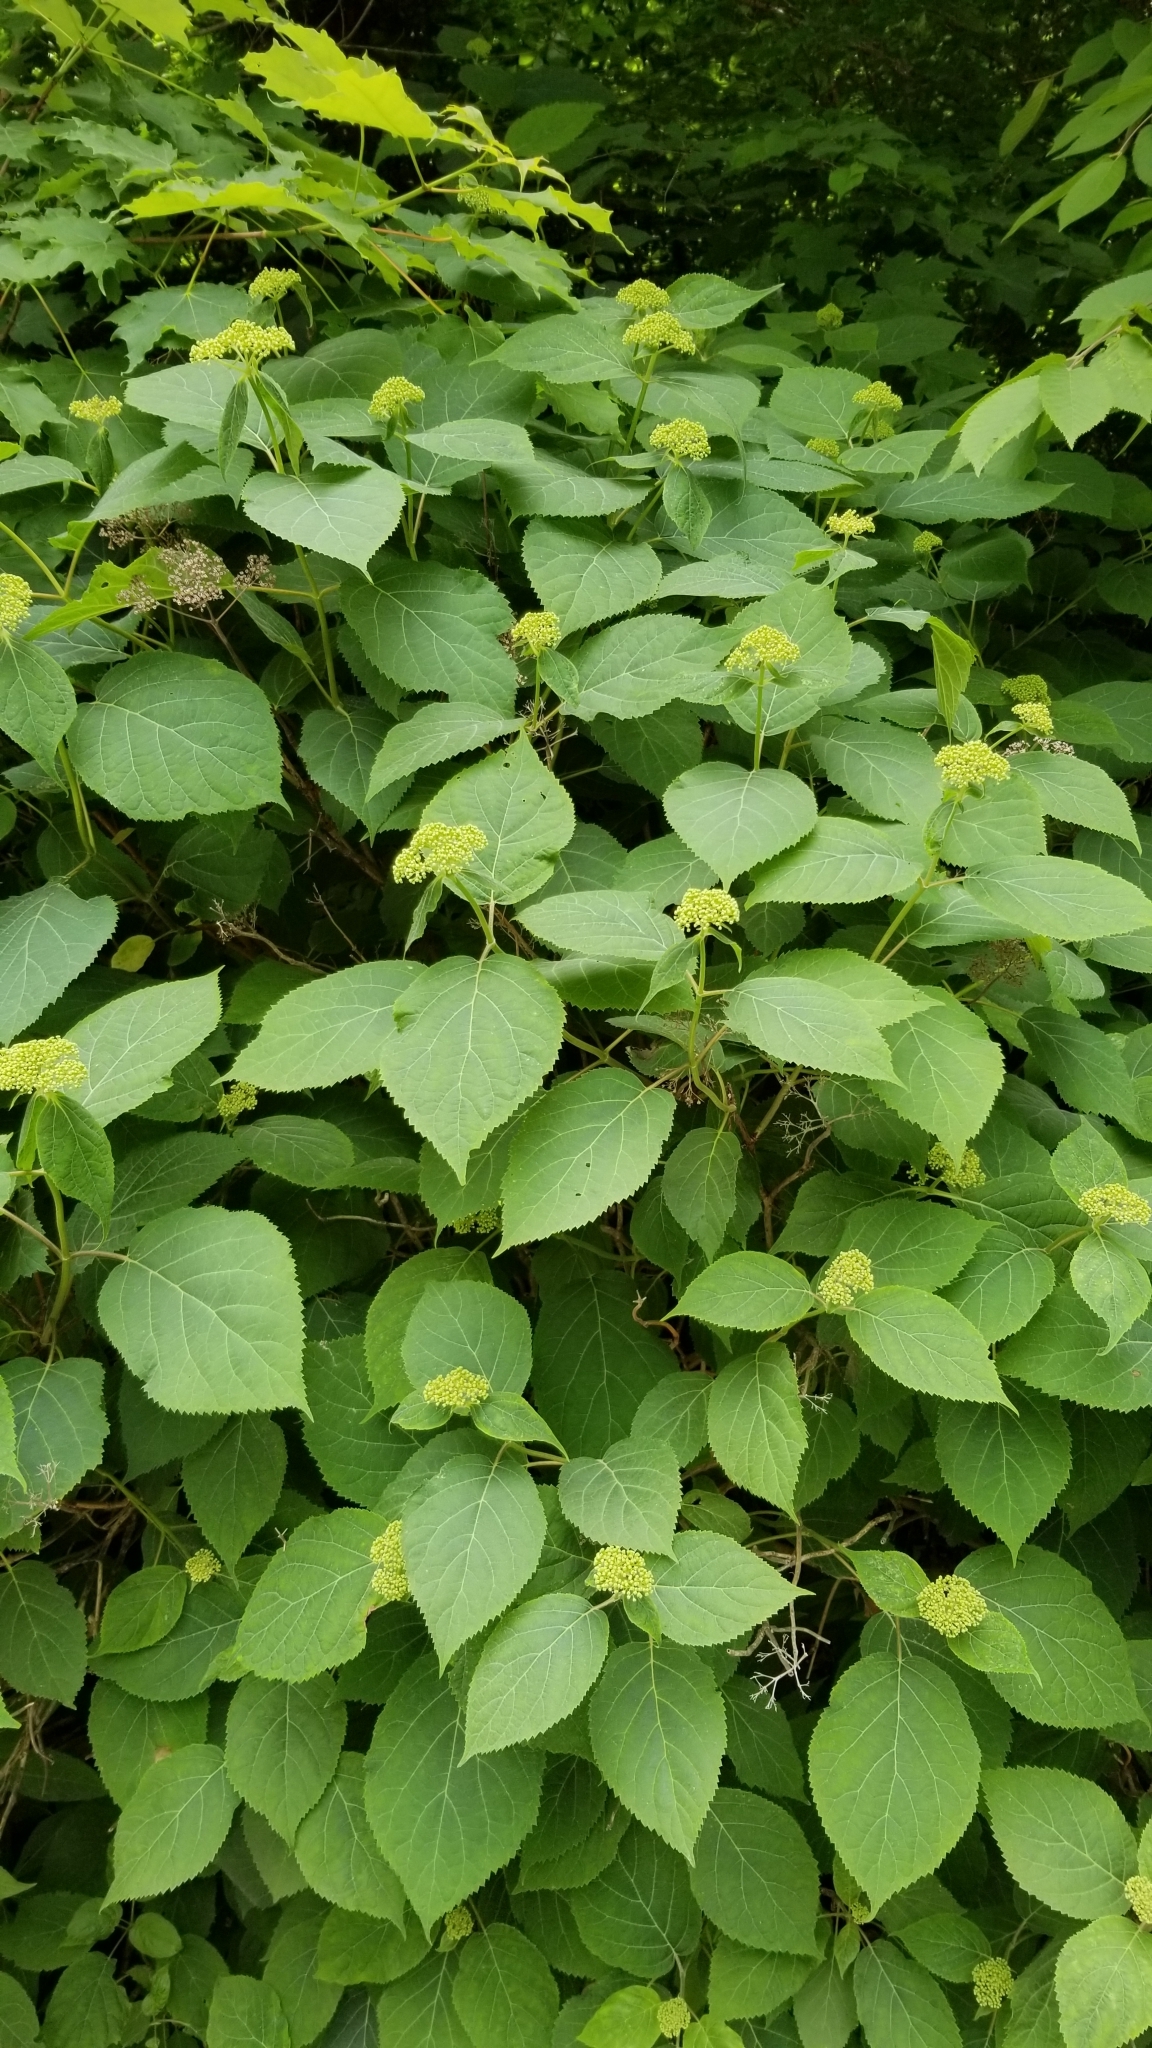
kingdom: Plantae
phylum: Tracheophyta
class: Magnoliopsida
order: Cornales
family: Hydrangeaceae
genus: Hydrangea
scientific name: Hydrangea arborescens
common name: Sevenbark
